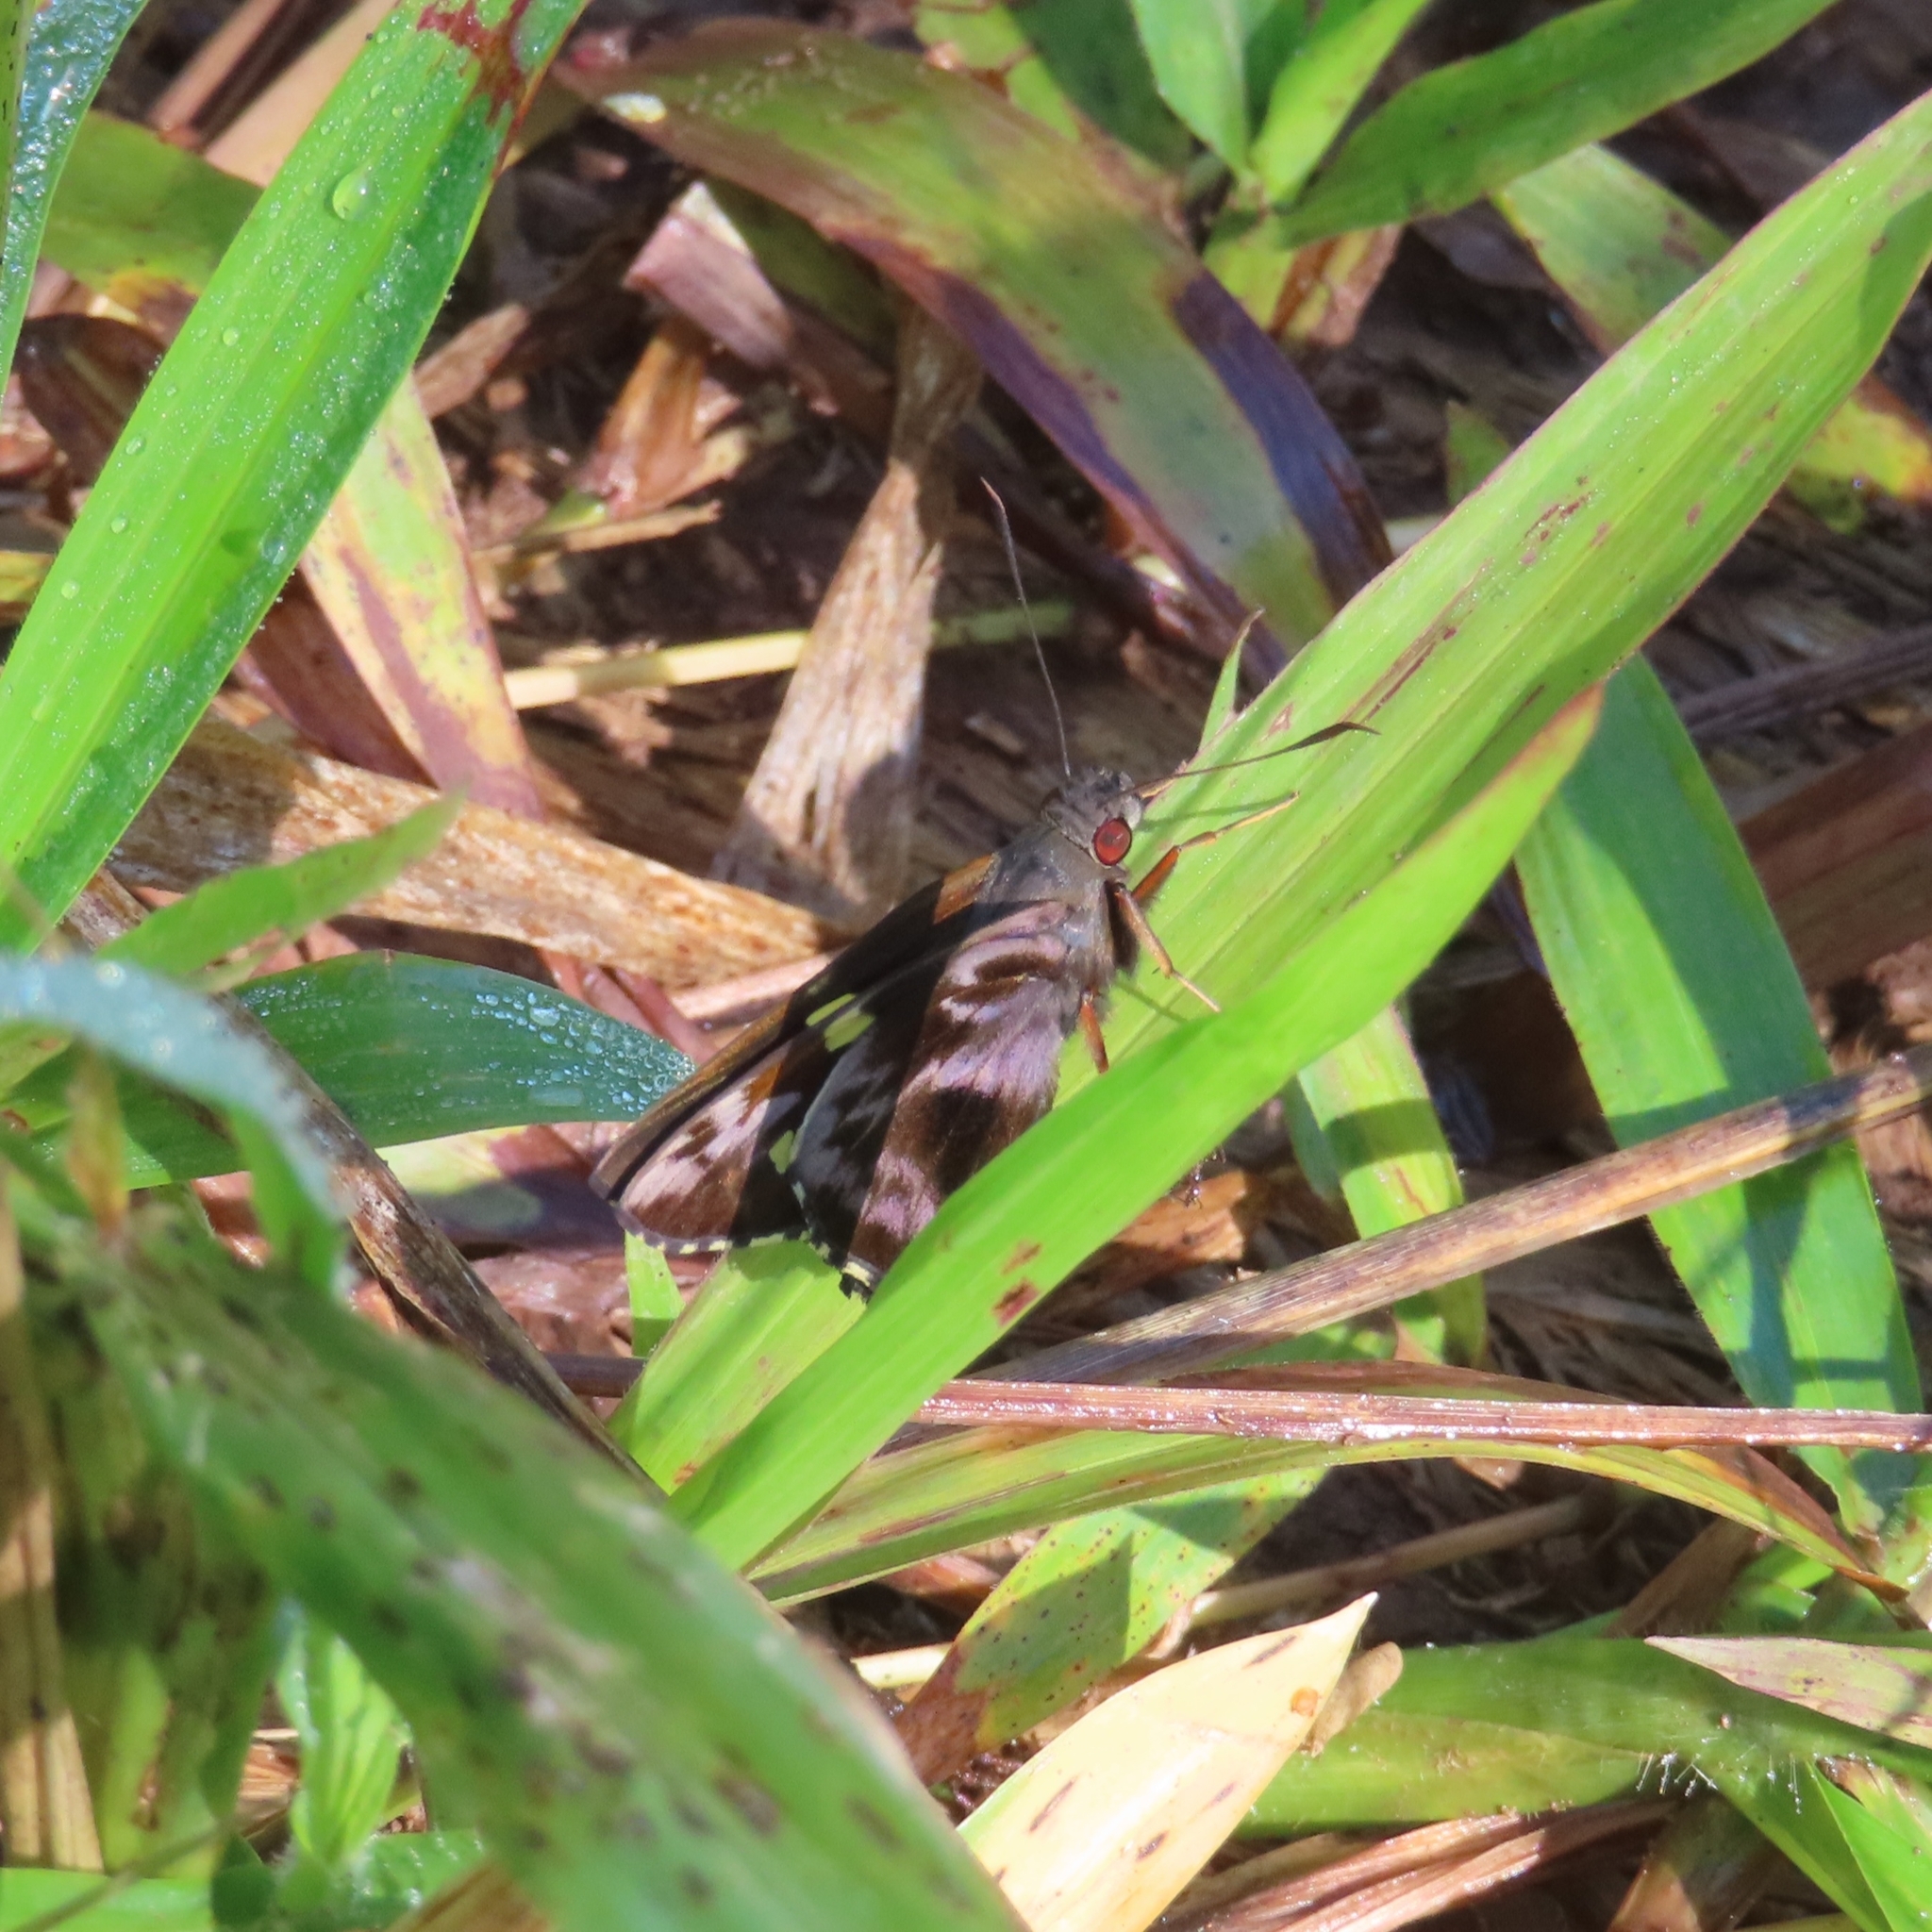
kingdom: Animalia
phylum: Arthropoda
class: Insecta
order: Lepidoptera
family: Hesperiidae
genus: Perichares
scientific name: Perichares philetes
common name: Green-backed ruby-eye
